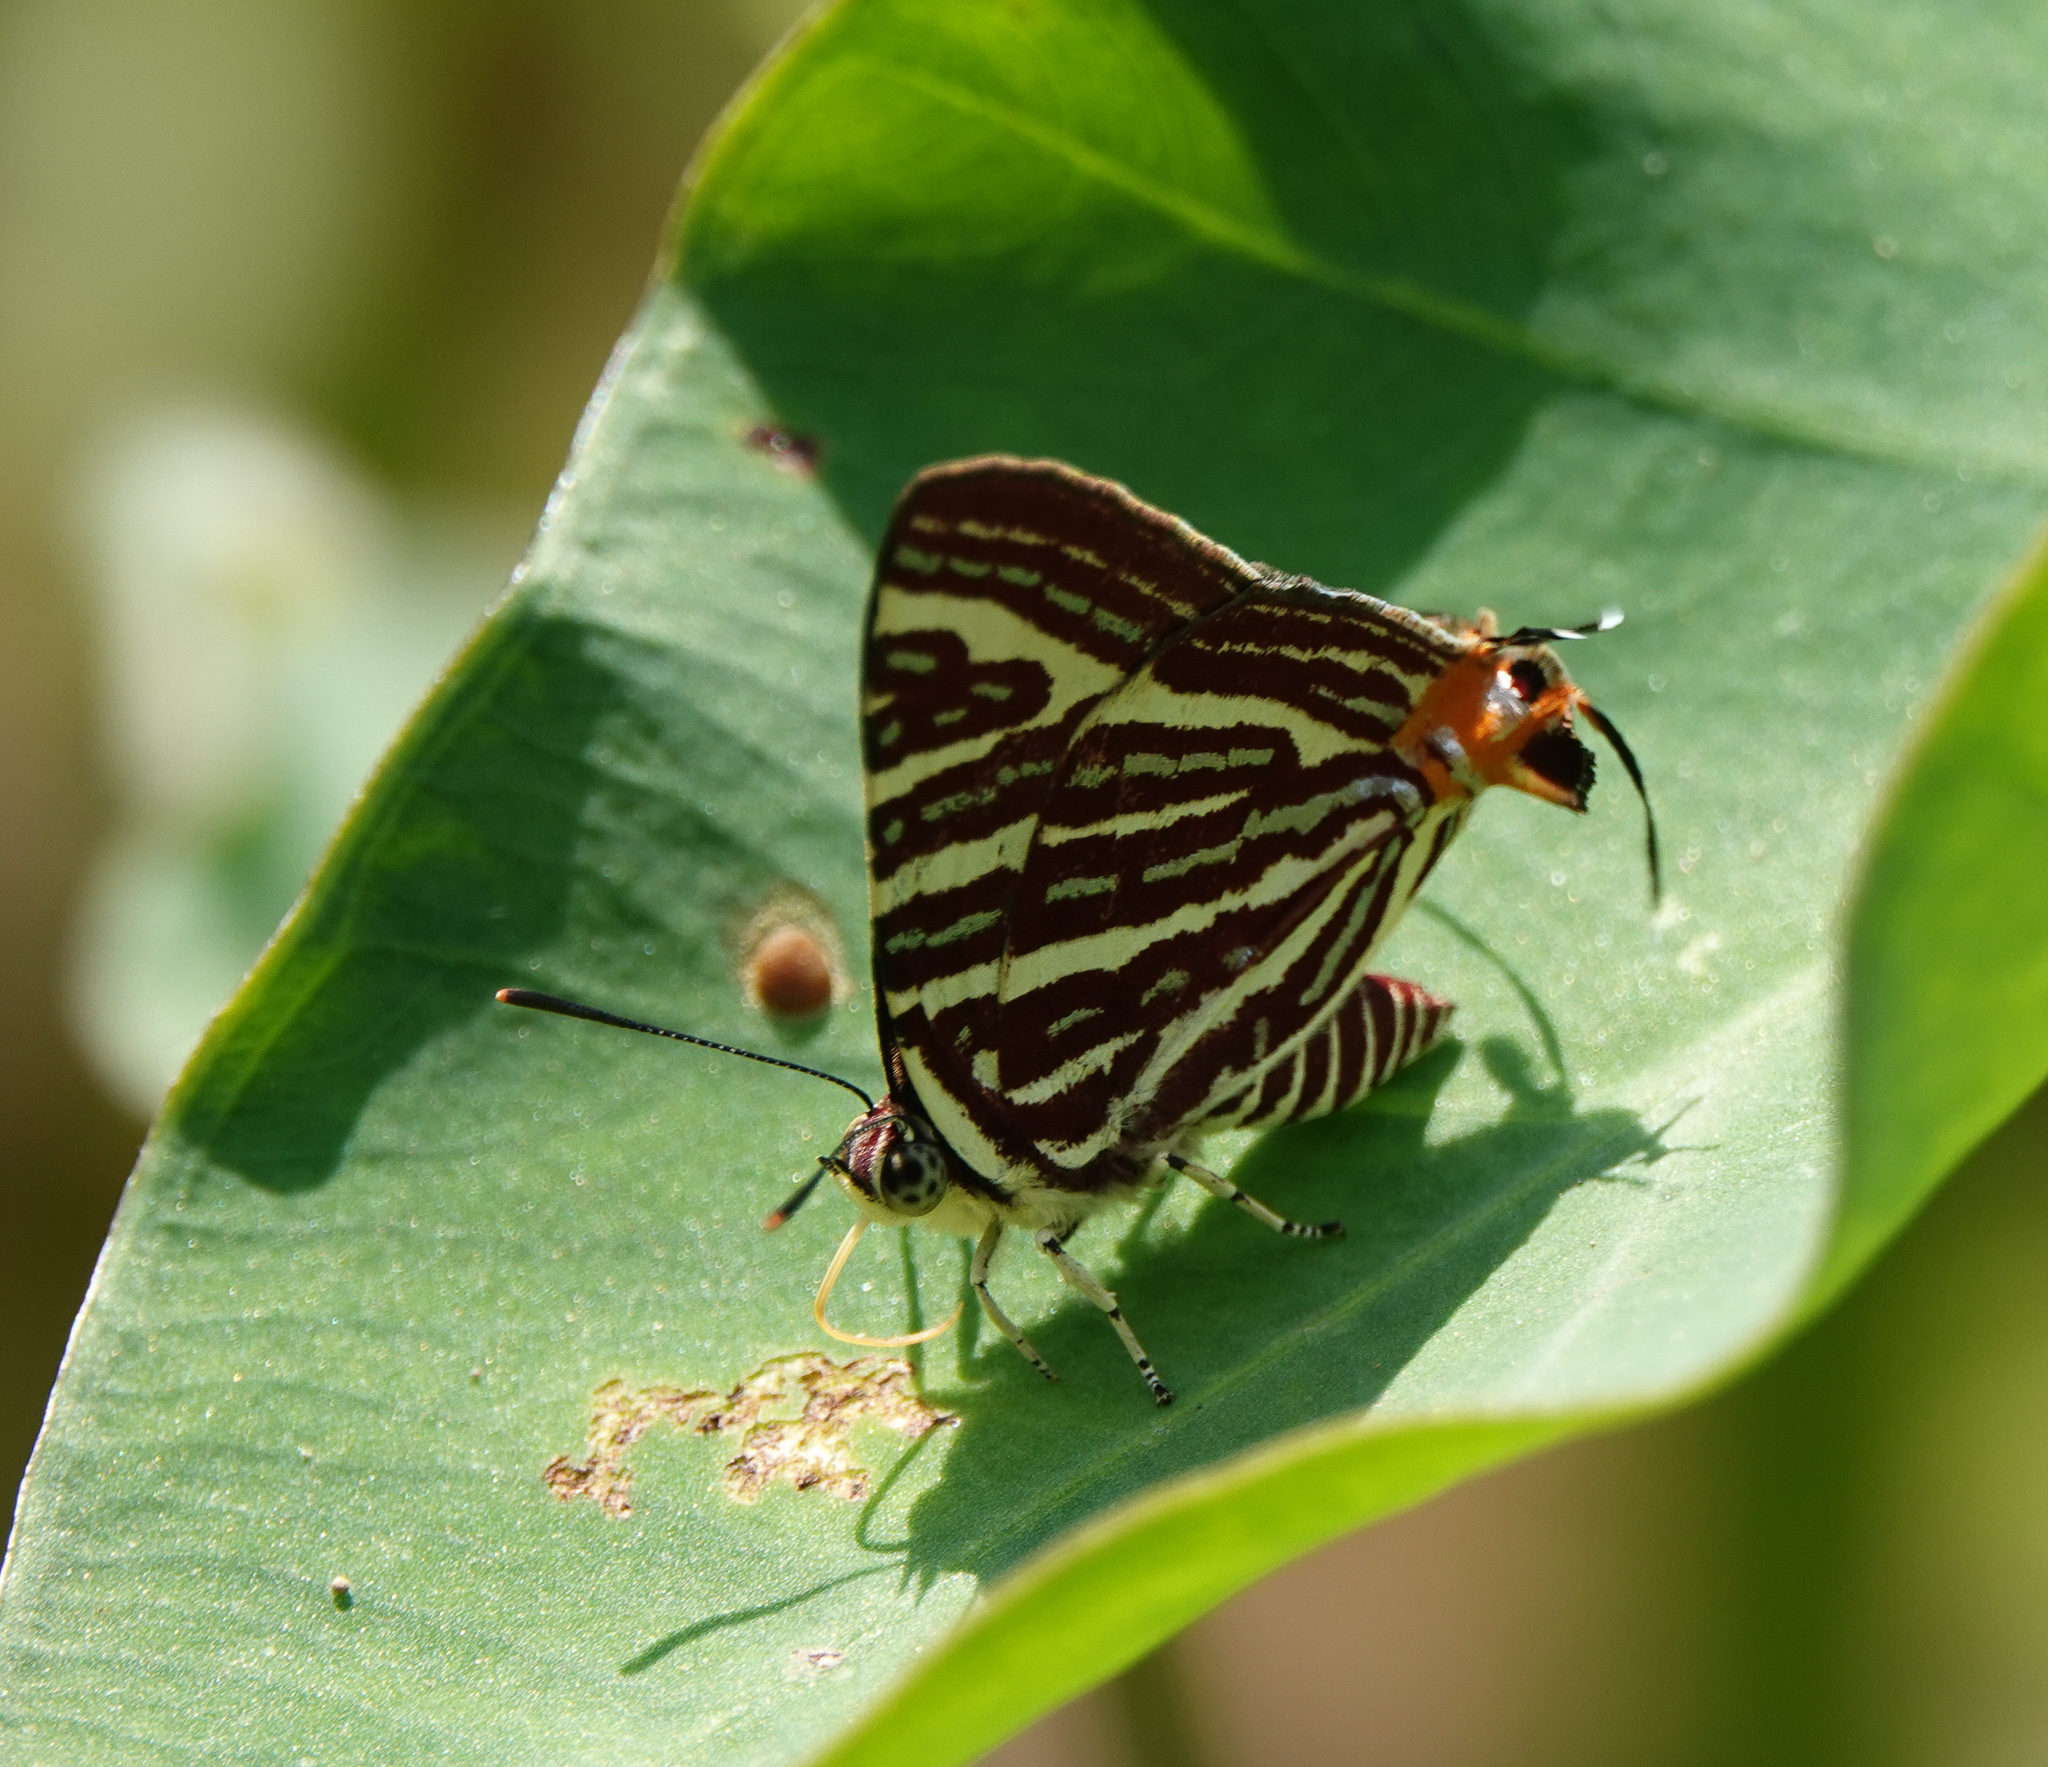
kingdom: Animalia
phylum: Arthropoda
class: Insecta
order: Lepidoptera
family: Lycaenidae
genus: Cigaritis
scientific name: Cigaritis lohita
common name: Long-banded silverline
